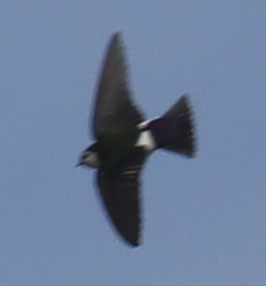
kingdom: Animalia
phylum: Chordata
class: Aves
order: Passeriformes
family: Hirundinidae
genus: Tachycineta
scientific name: Tachycineta thalassina
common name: Violet-green swallow
